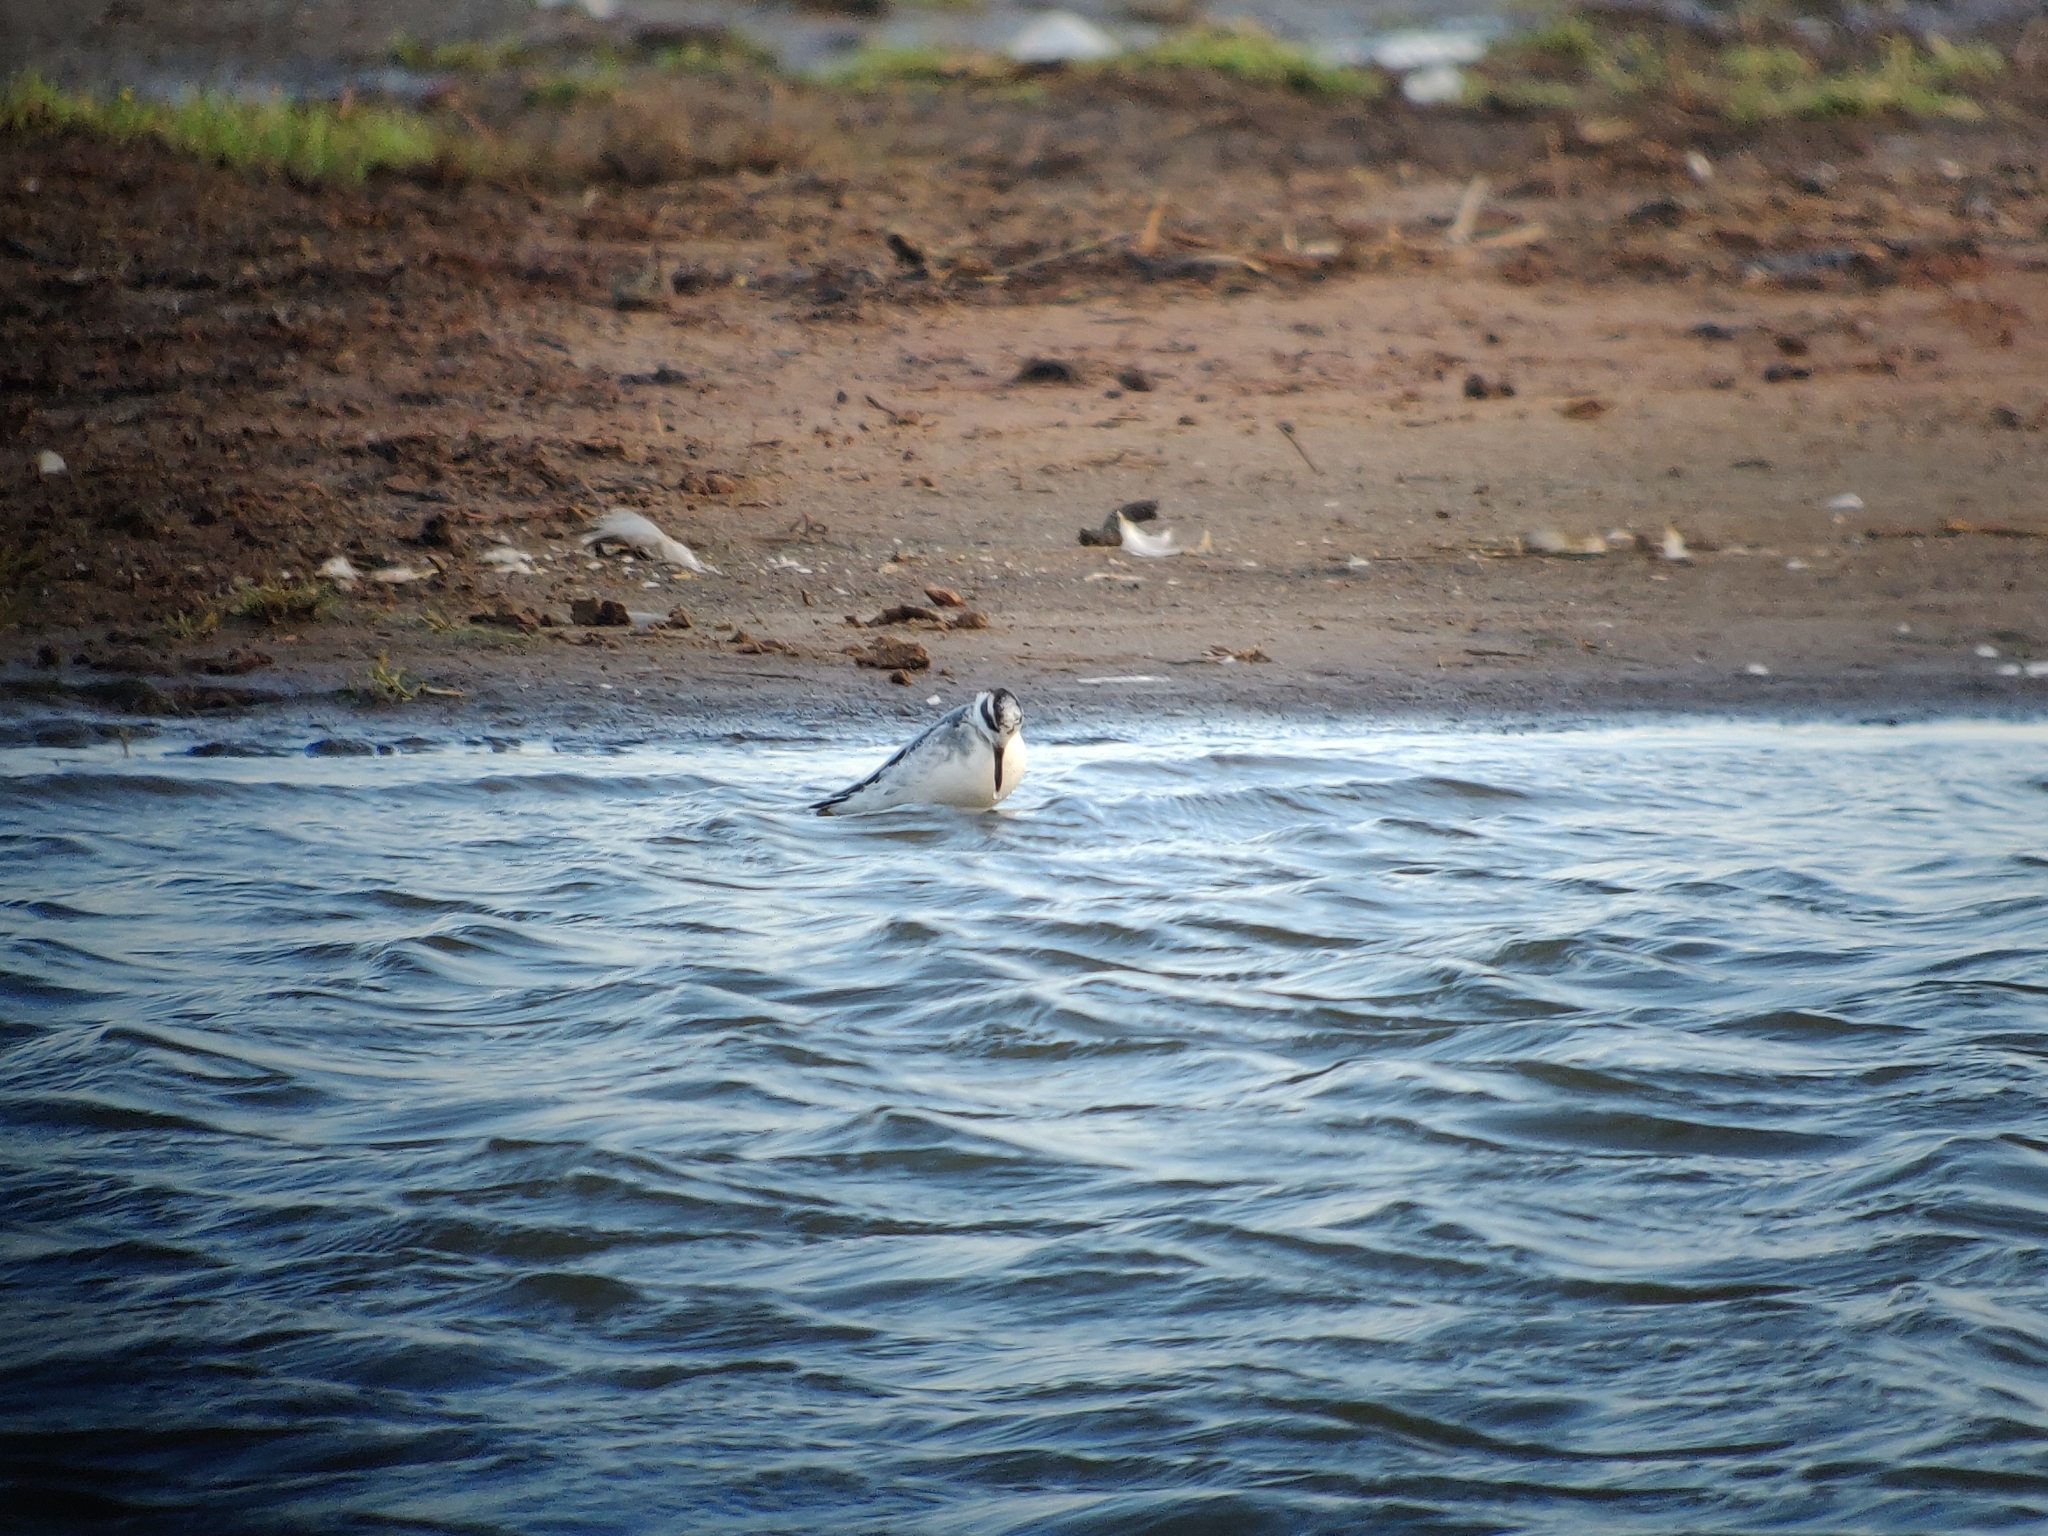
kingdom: Animalia
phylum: Chordata
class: Aves
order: Charadriiformes
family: Scolopacidae
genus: Phalaropus
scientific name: Phalaropus fulicarius
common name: Red phalarope
